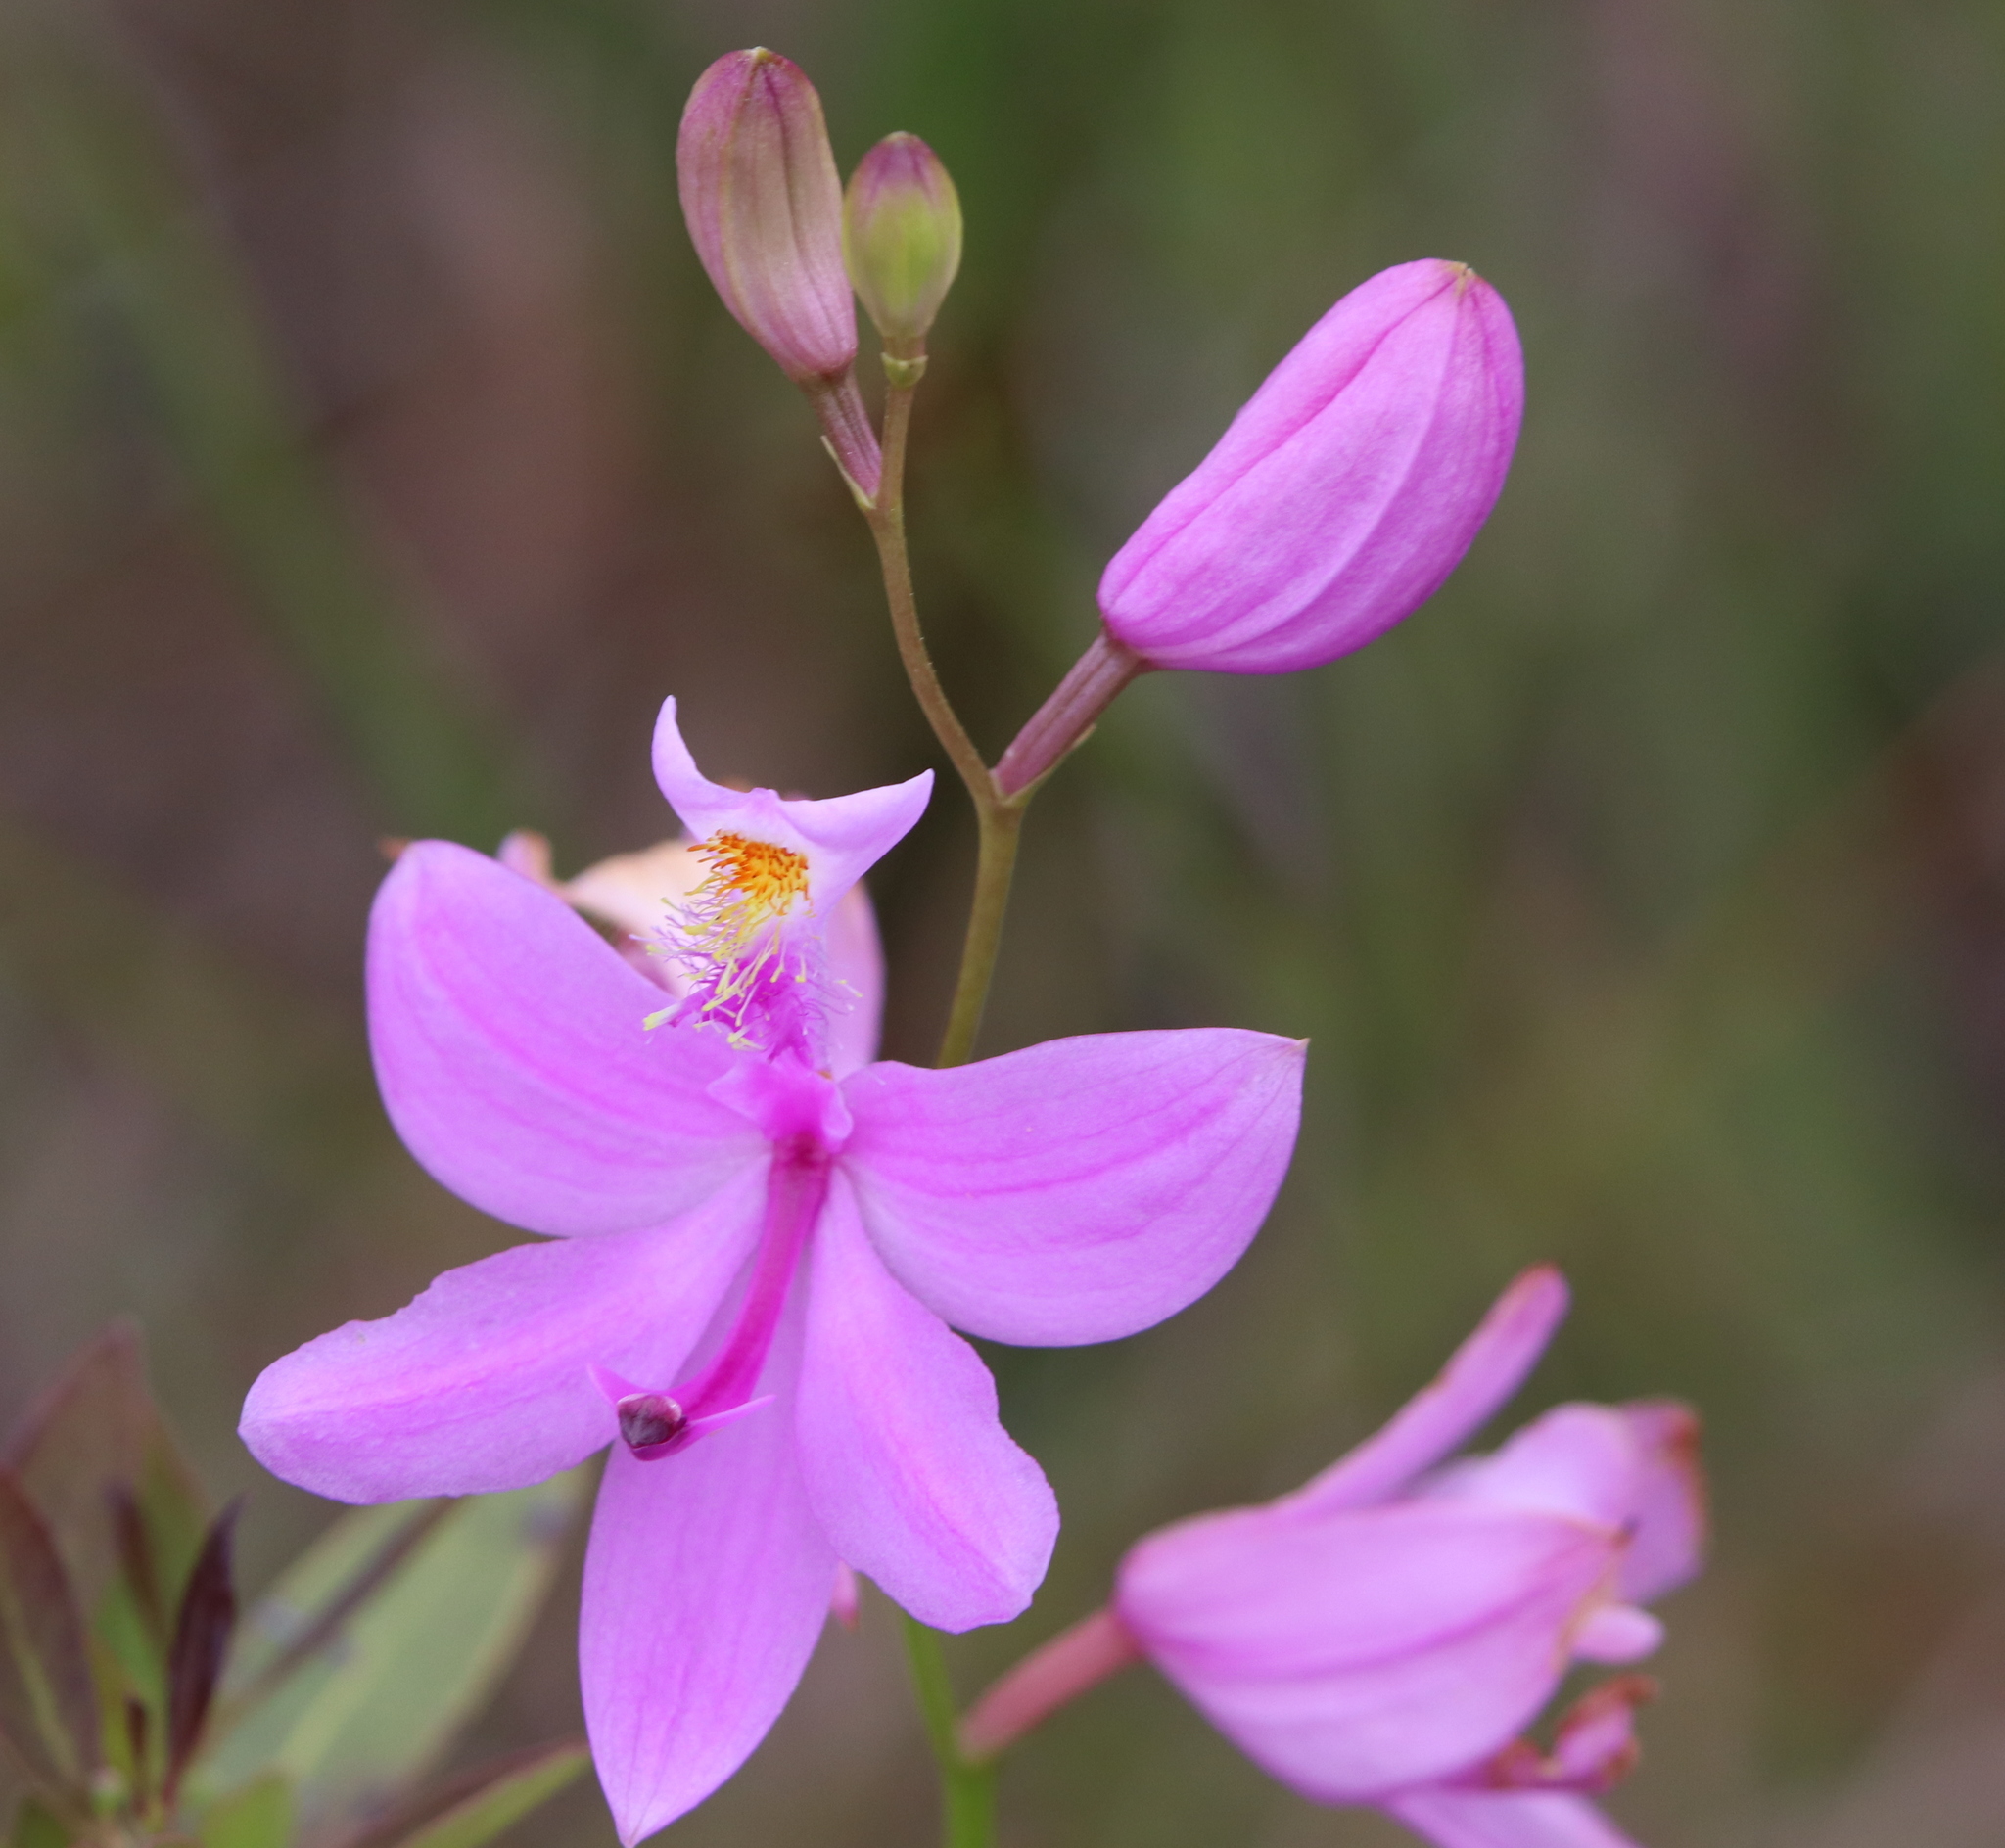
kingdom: Plantae
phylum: Tracheophyta
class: Liliopsida
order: Asparagales
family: Orchidaceae
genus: Calopogon
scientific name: Calopogon tuberosus
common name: Grass-pink
